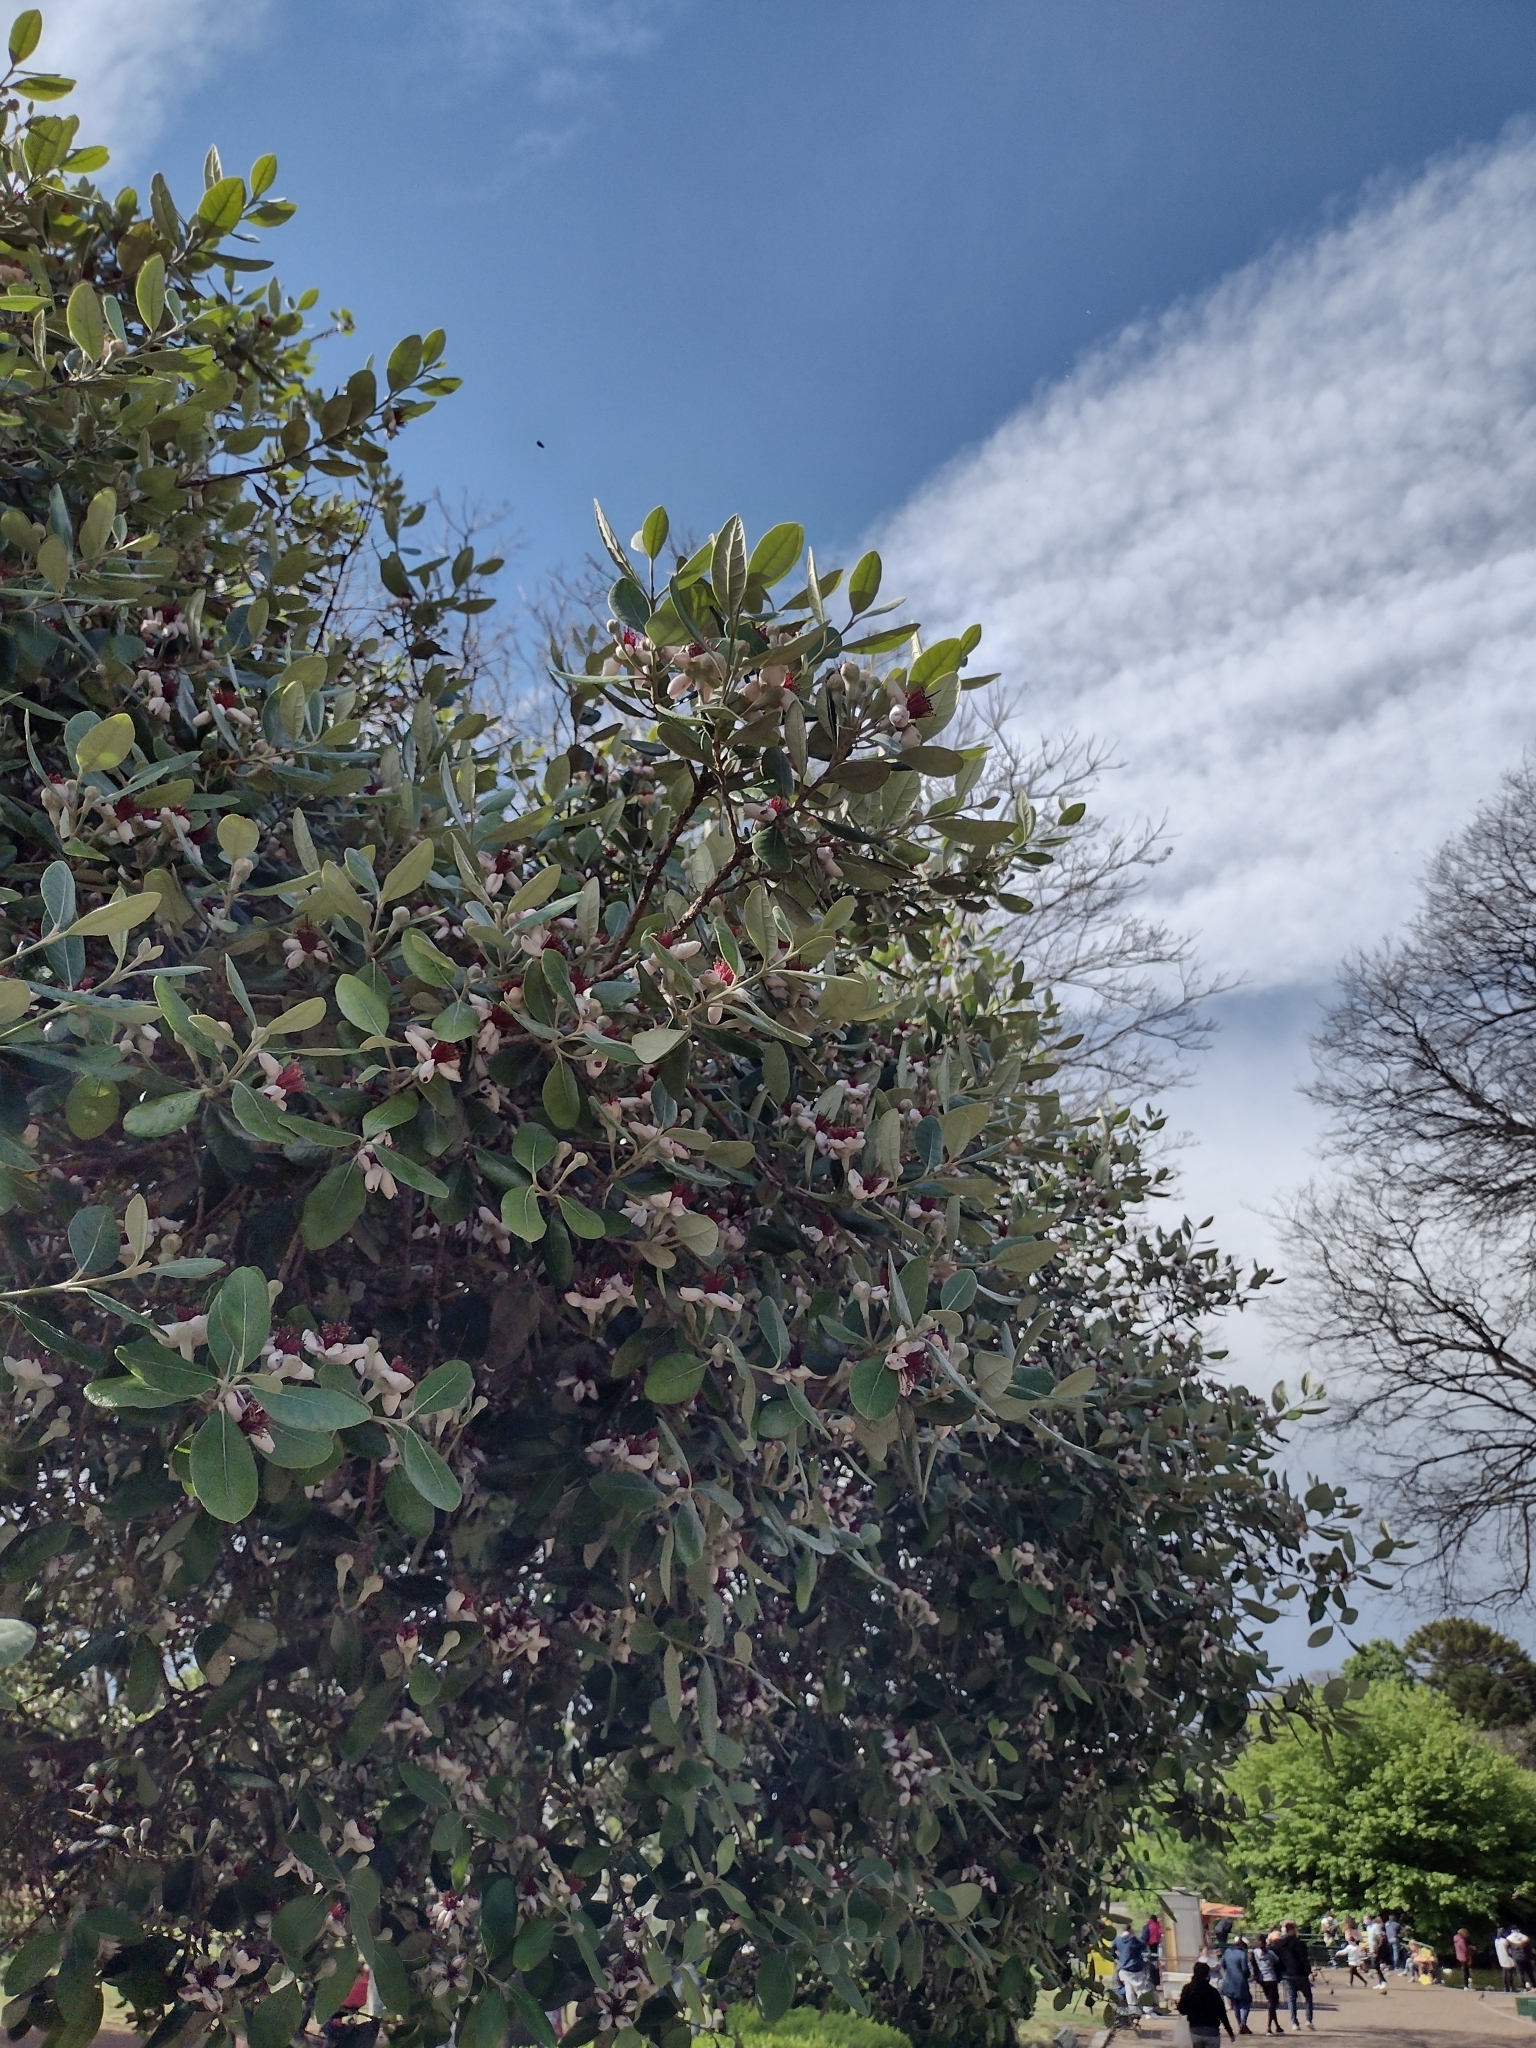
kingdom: Plantae
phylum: Tracheophyta
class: Magnoliopsida
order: Myrtales
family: Myrtaceae
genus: Feijoa
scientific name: Feijoa sellowiana
